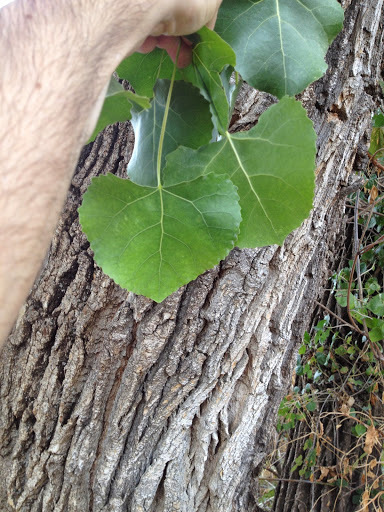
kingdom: Plantae
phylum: Tracheophyta
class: Magnoliopsida
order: Malpighiales
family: Salicaceae
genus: Populus
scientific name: Populus fremontii
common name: Fremont's cottonwood
